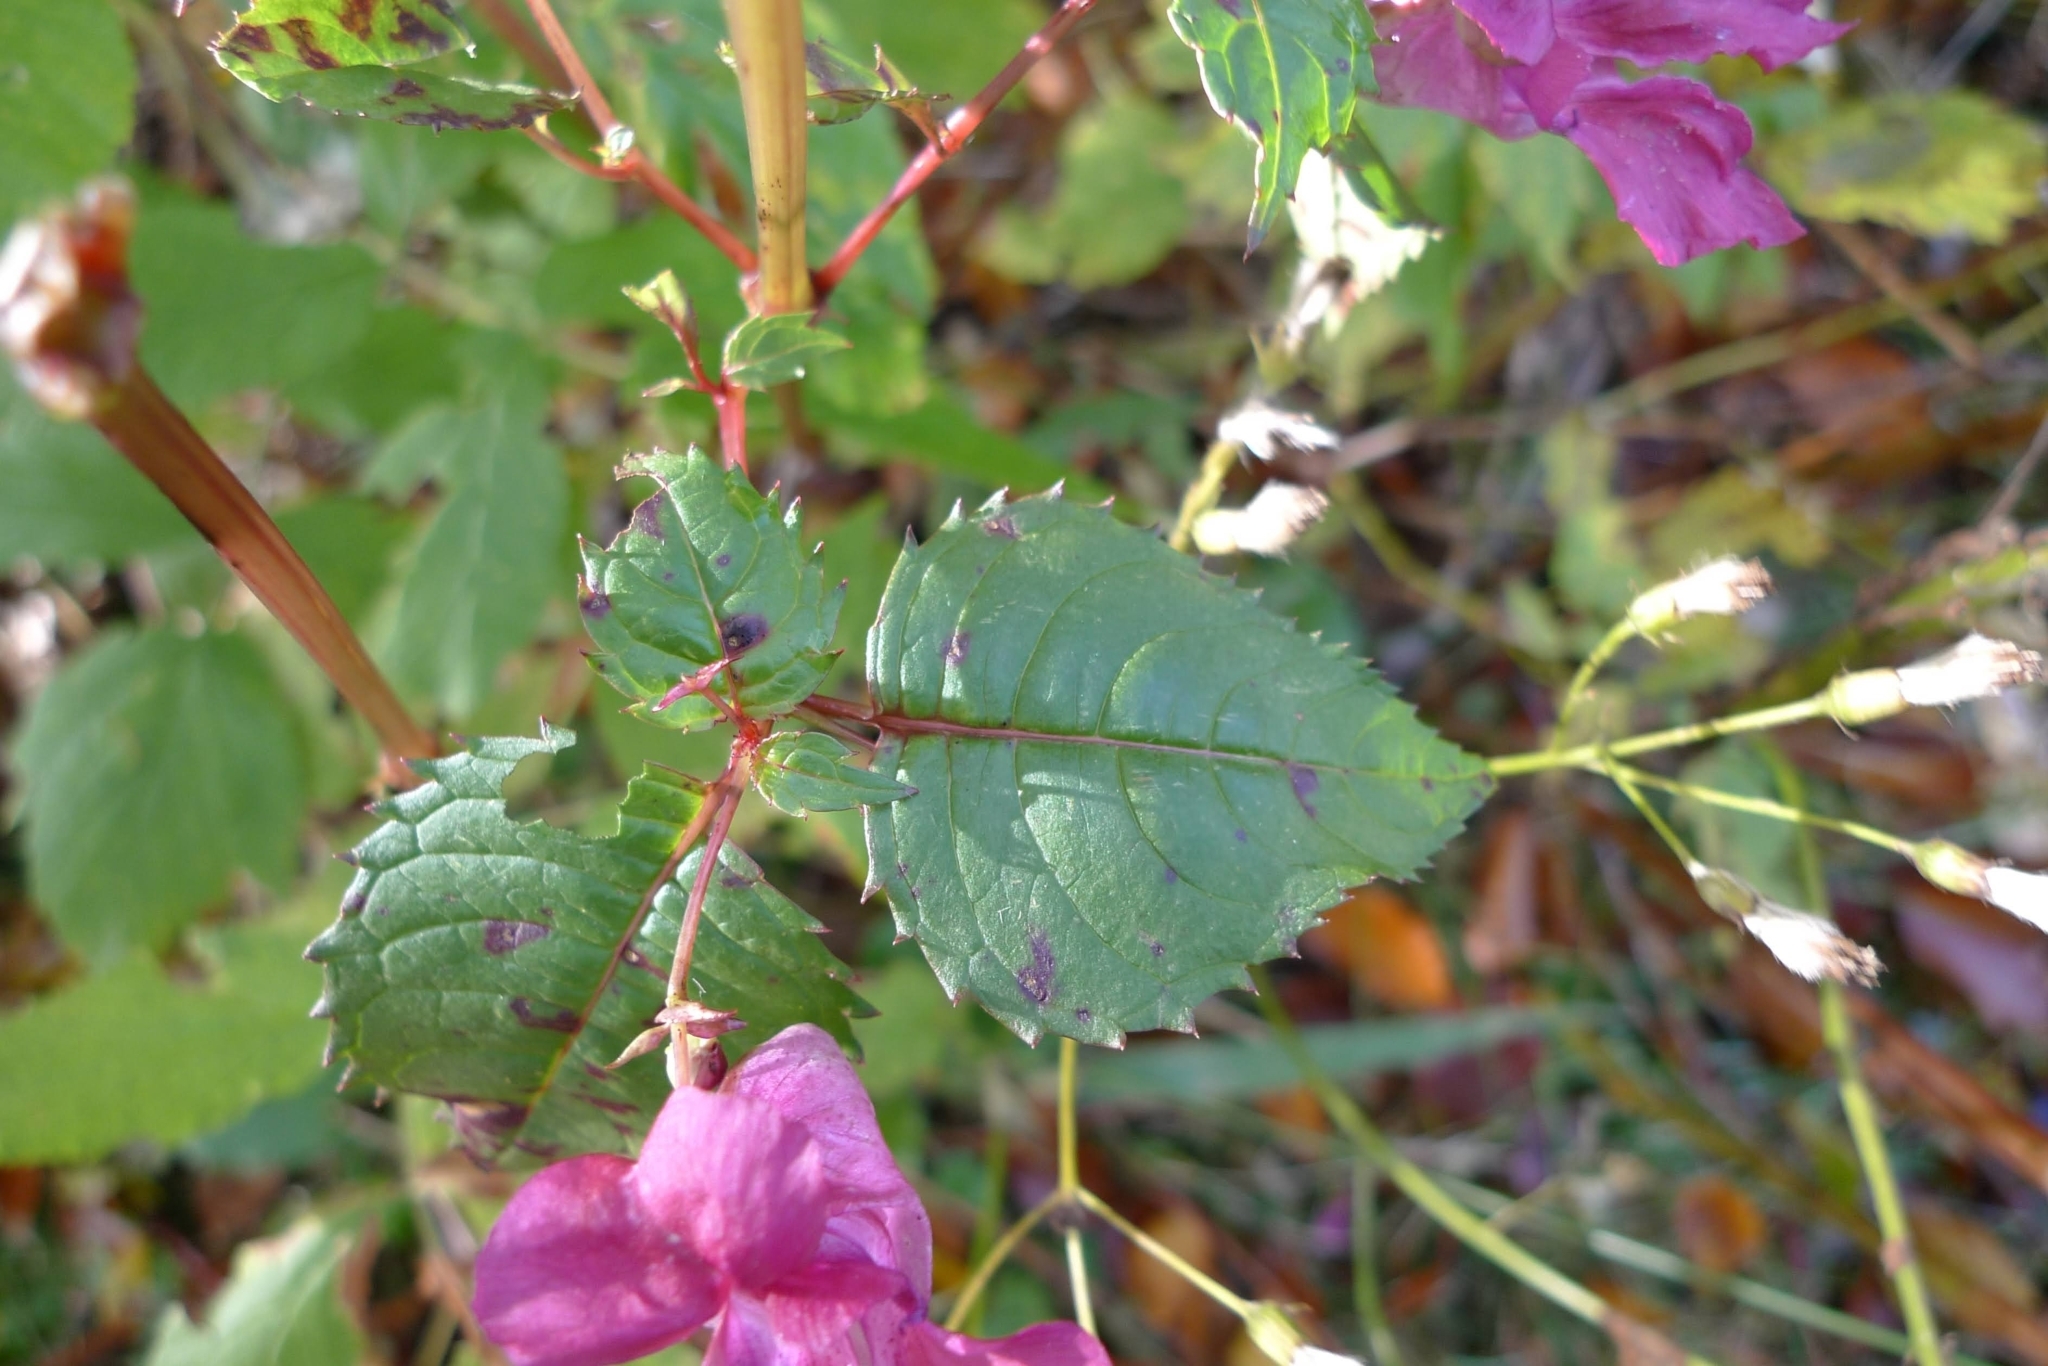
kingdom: Plantae
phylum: Tracheophyta
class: Magnoliopsida
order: Ericales
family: Balsaminaceae
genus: Impatiens
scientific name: Impatiens glandulifera
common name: Himalayan balsam
